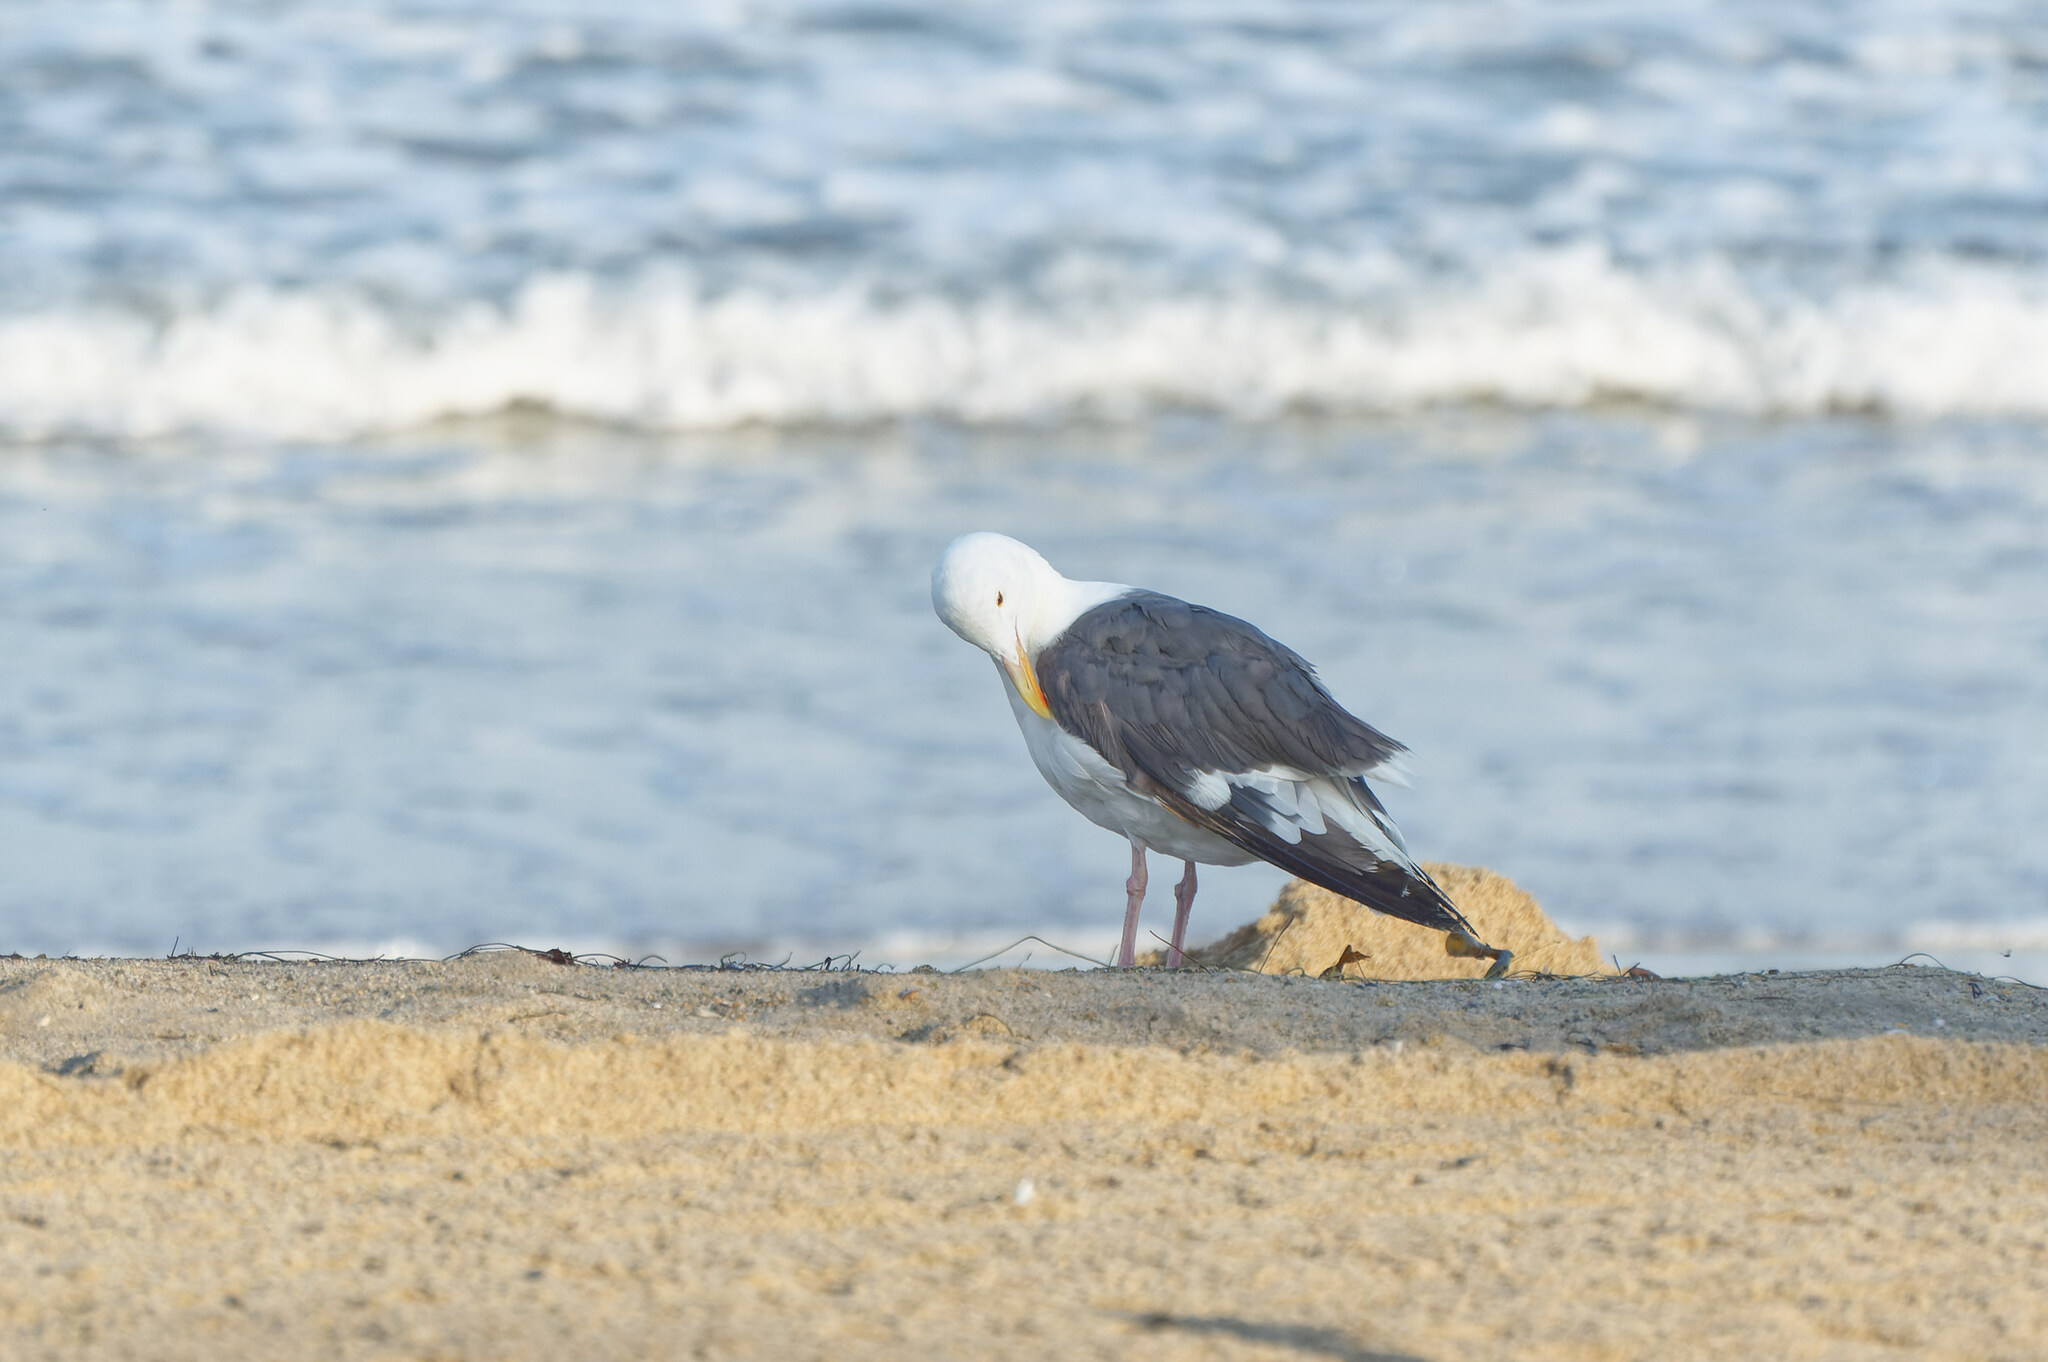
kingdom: Animalia
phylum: Chordata
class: Aves
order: Charadriiformes
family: Laridae
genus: Larus
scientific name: Larus occidentalis
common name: Western gull
